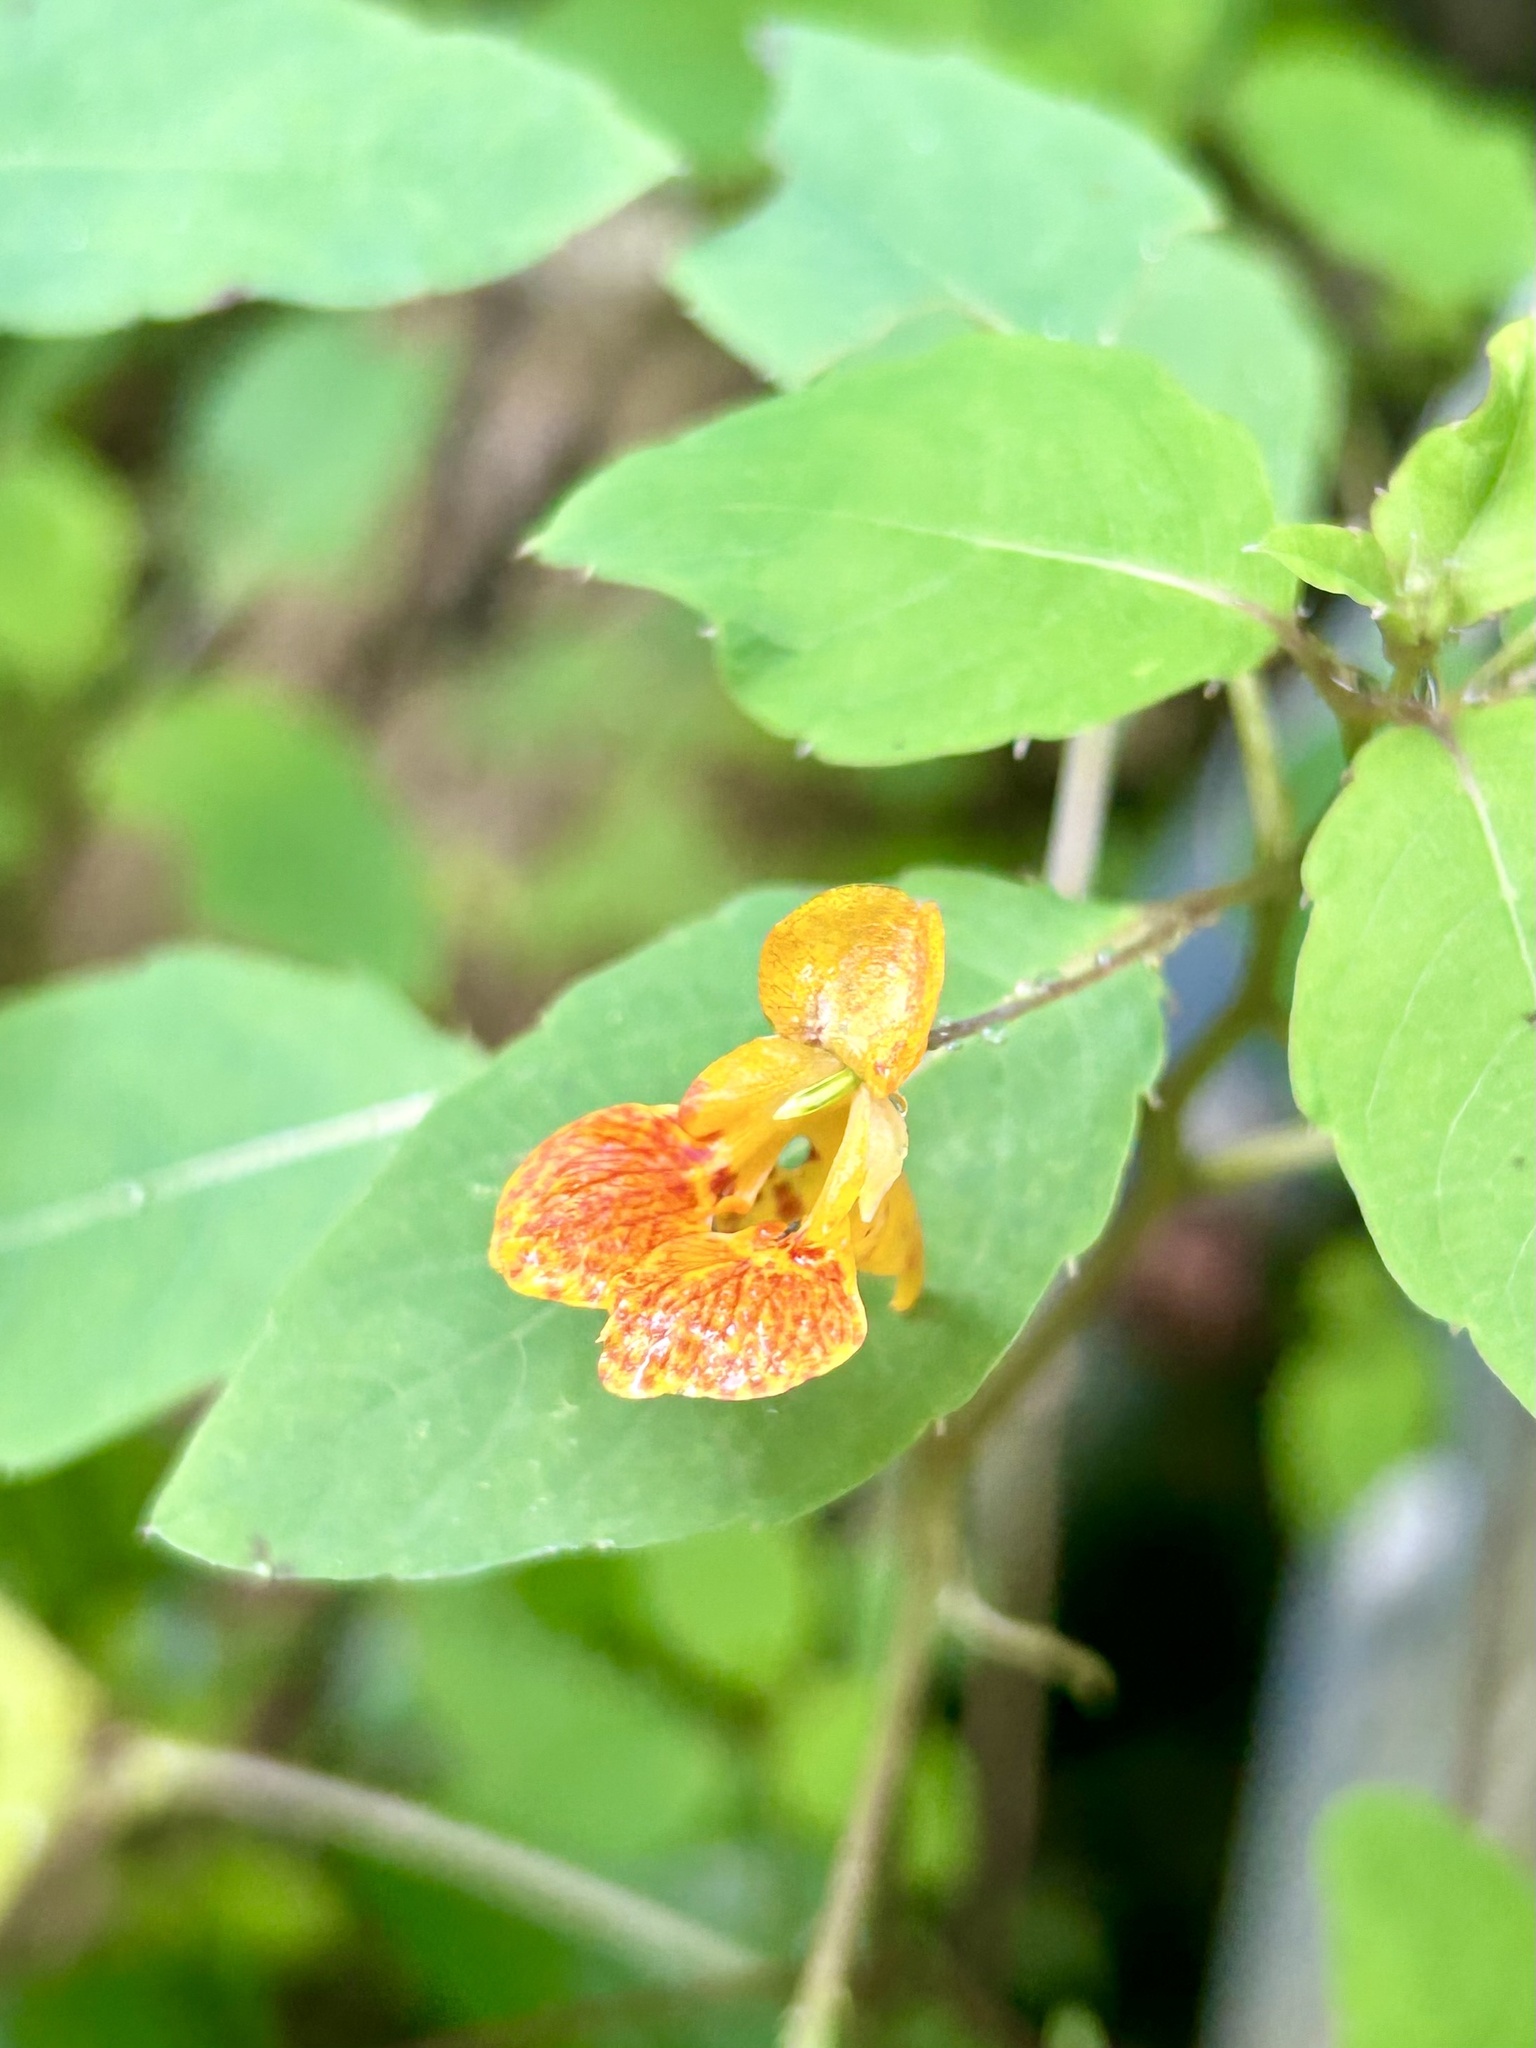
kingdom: Plantae
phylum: Tracheophyta
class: Magnoliopsida
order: Ericales
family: Balsaminaceae
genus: Impatiens
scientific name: Impatiens capensis
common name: Orange balsam
